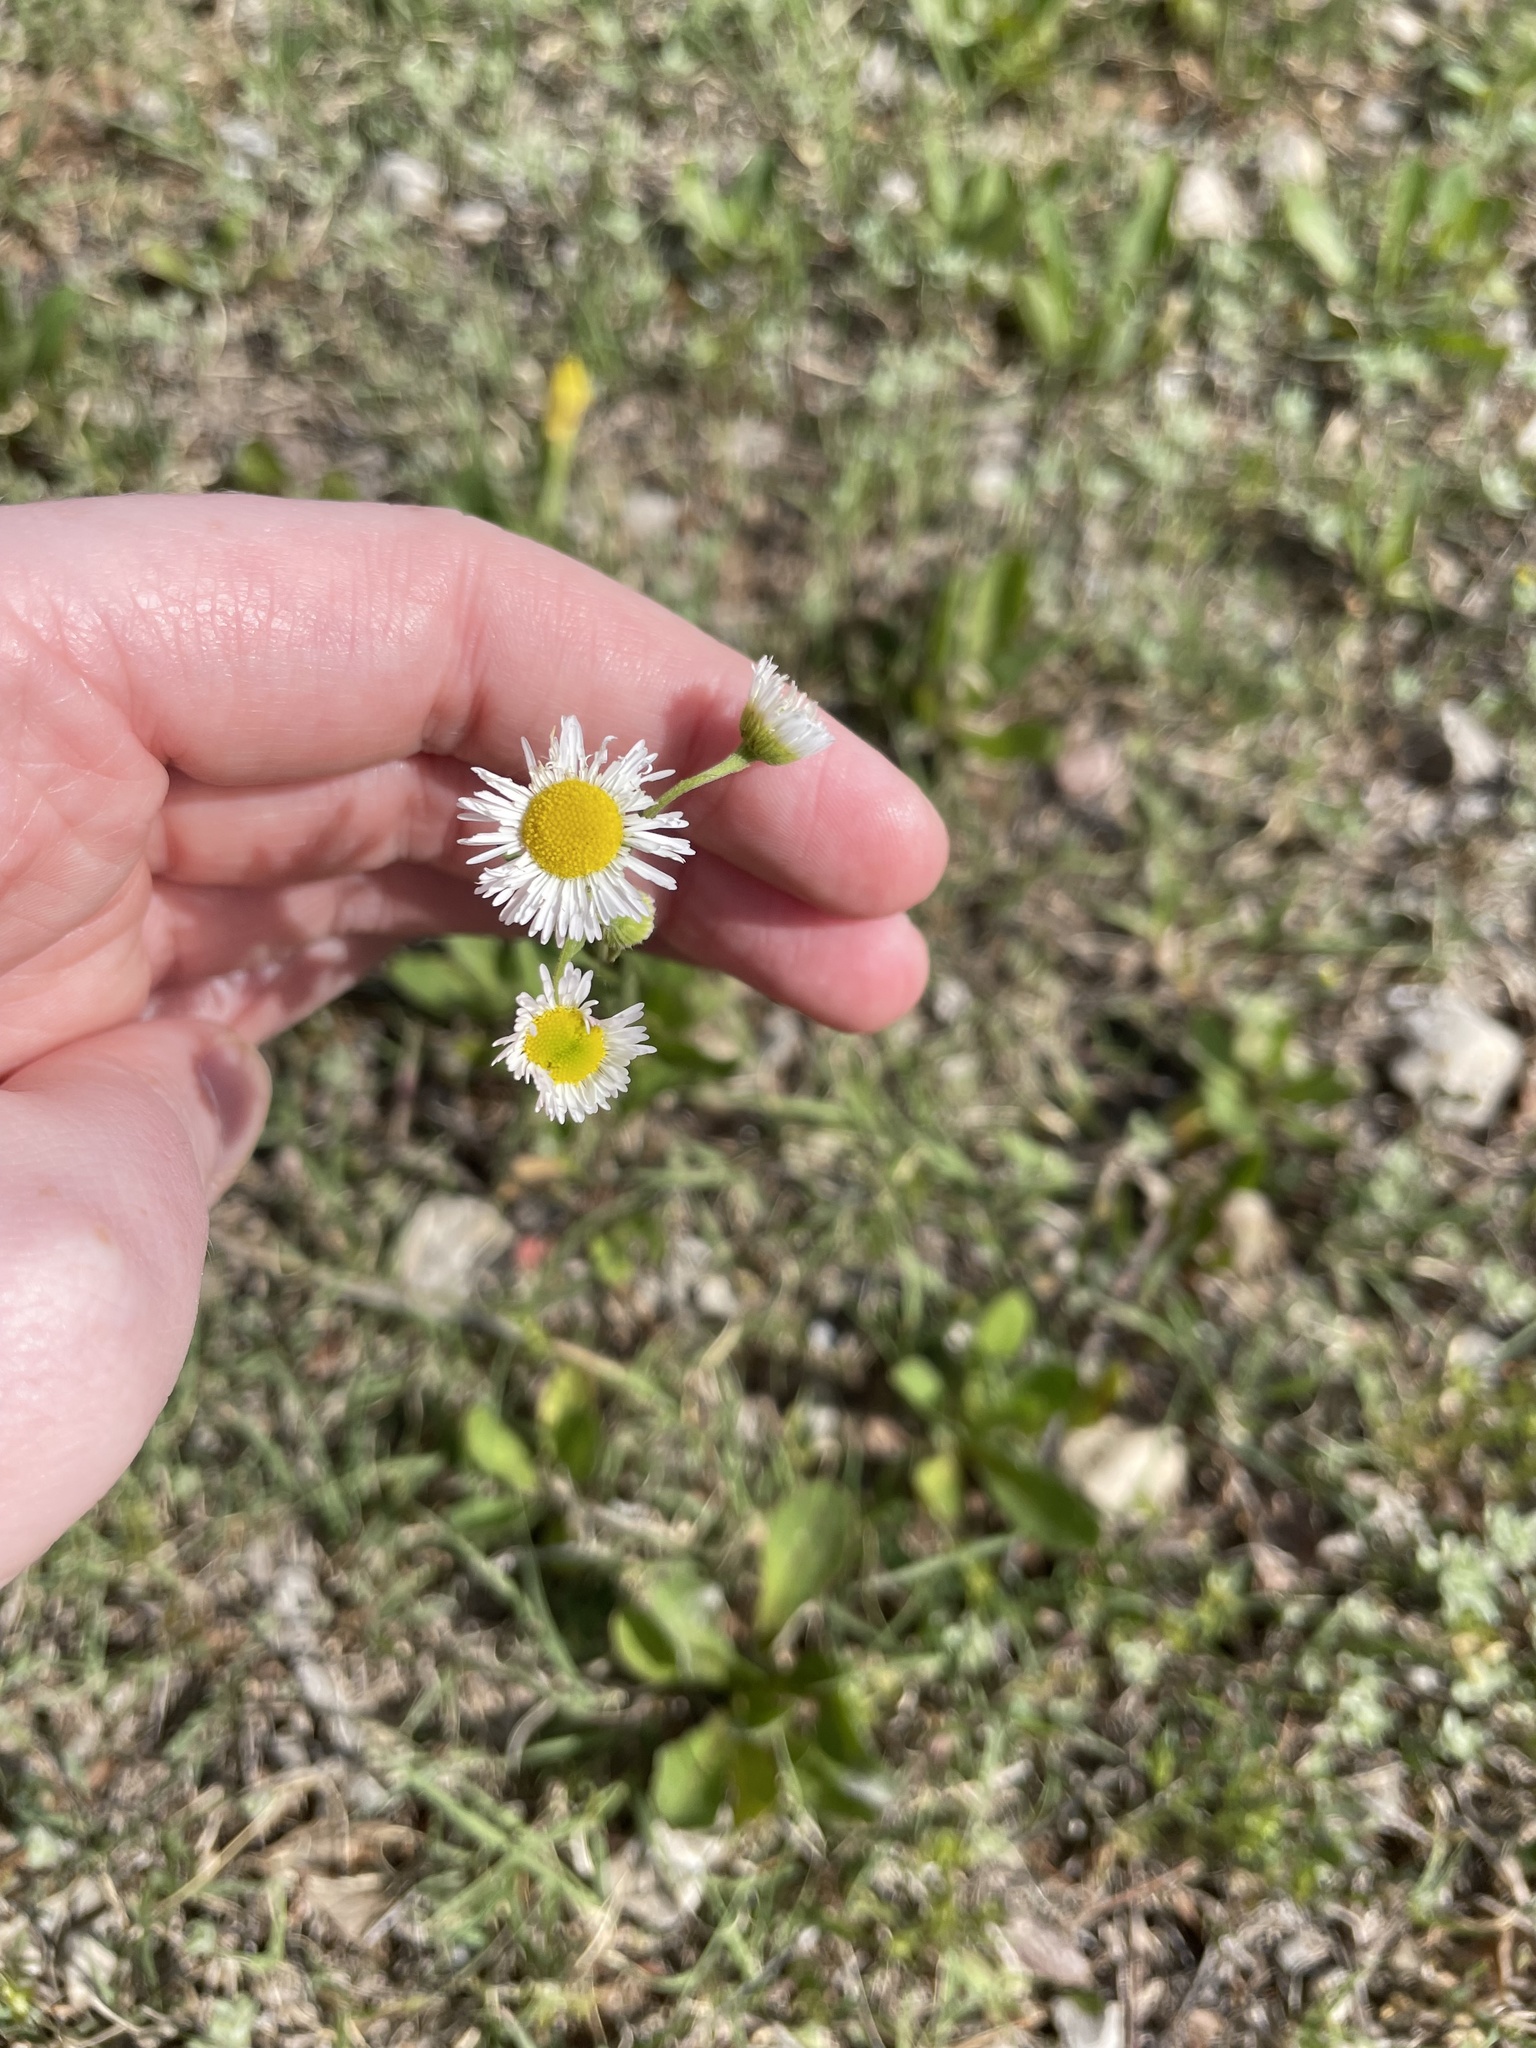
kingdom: Plantae
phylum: Tracheophyta
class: Magnoliopsida
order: Asterales
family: Asteraceae
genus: Erigeron
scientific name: Erigeron strigosus
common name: Common eastern fleabane
